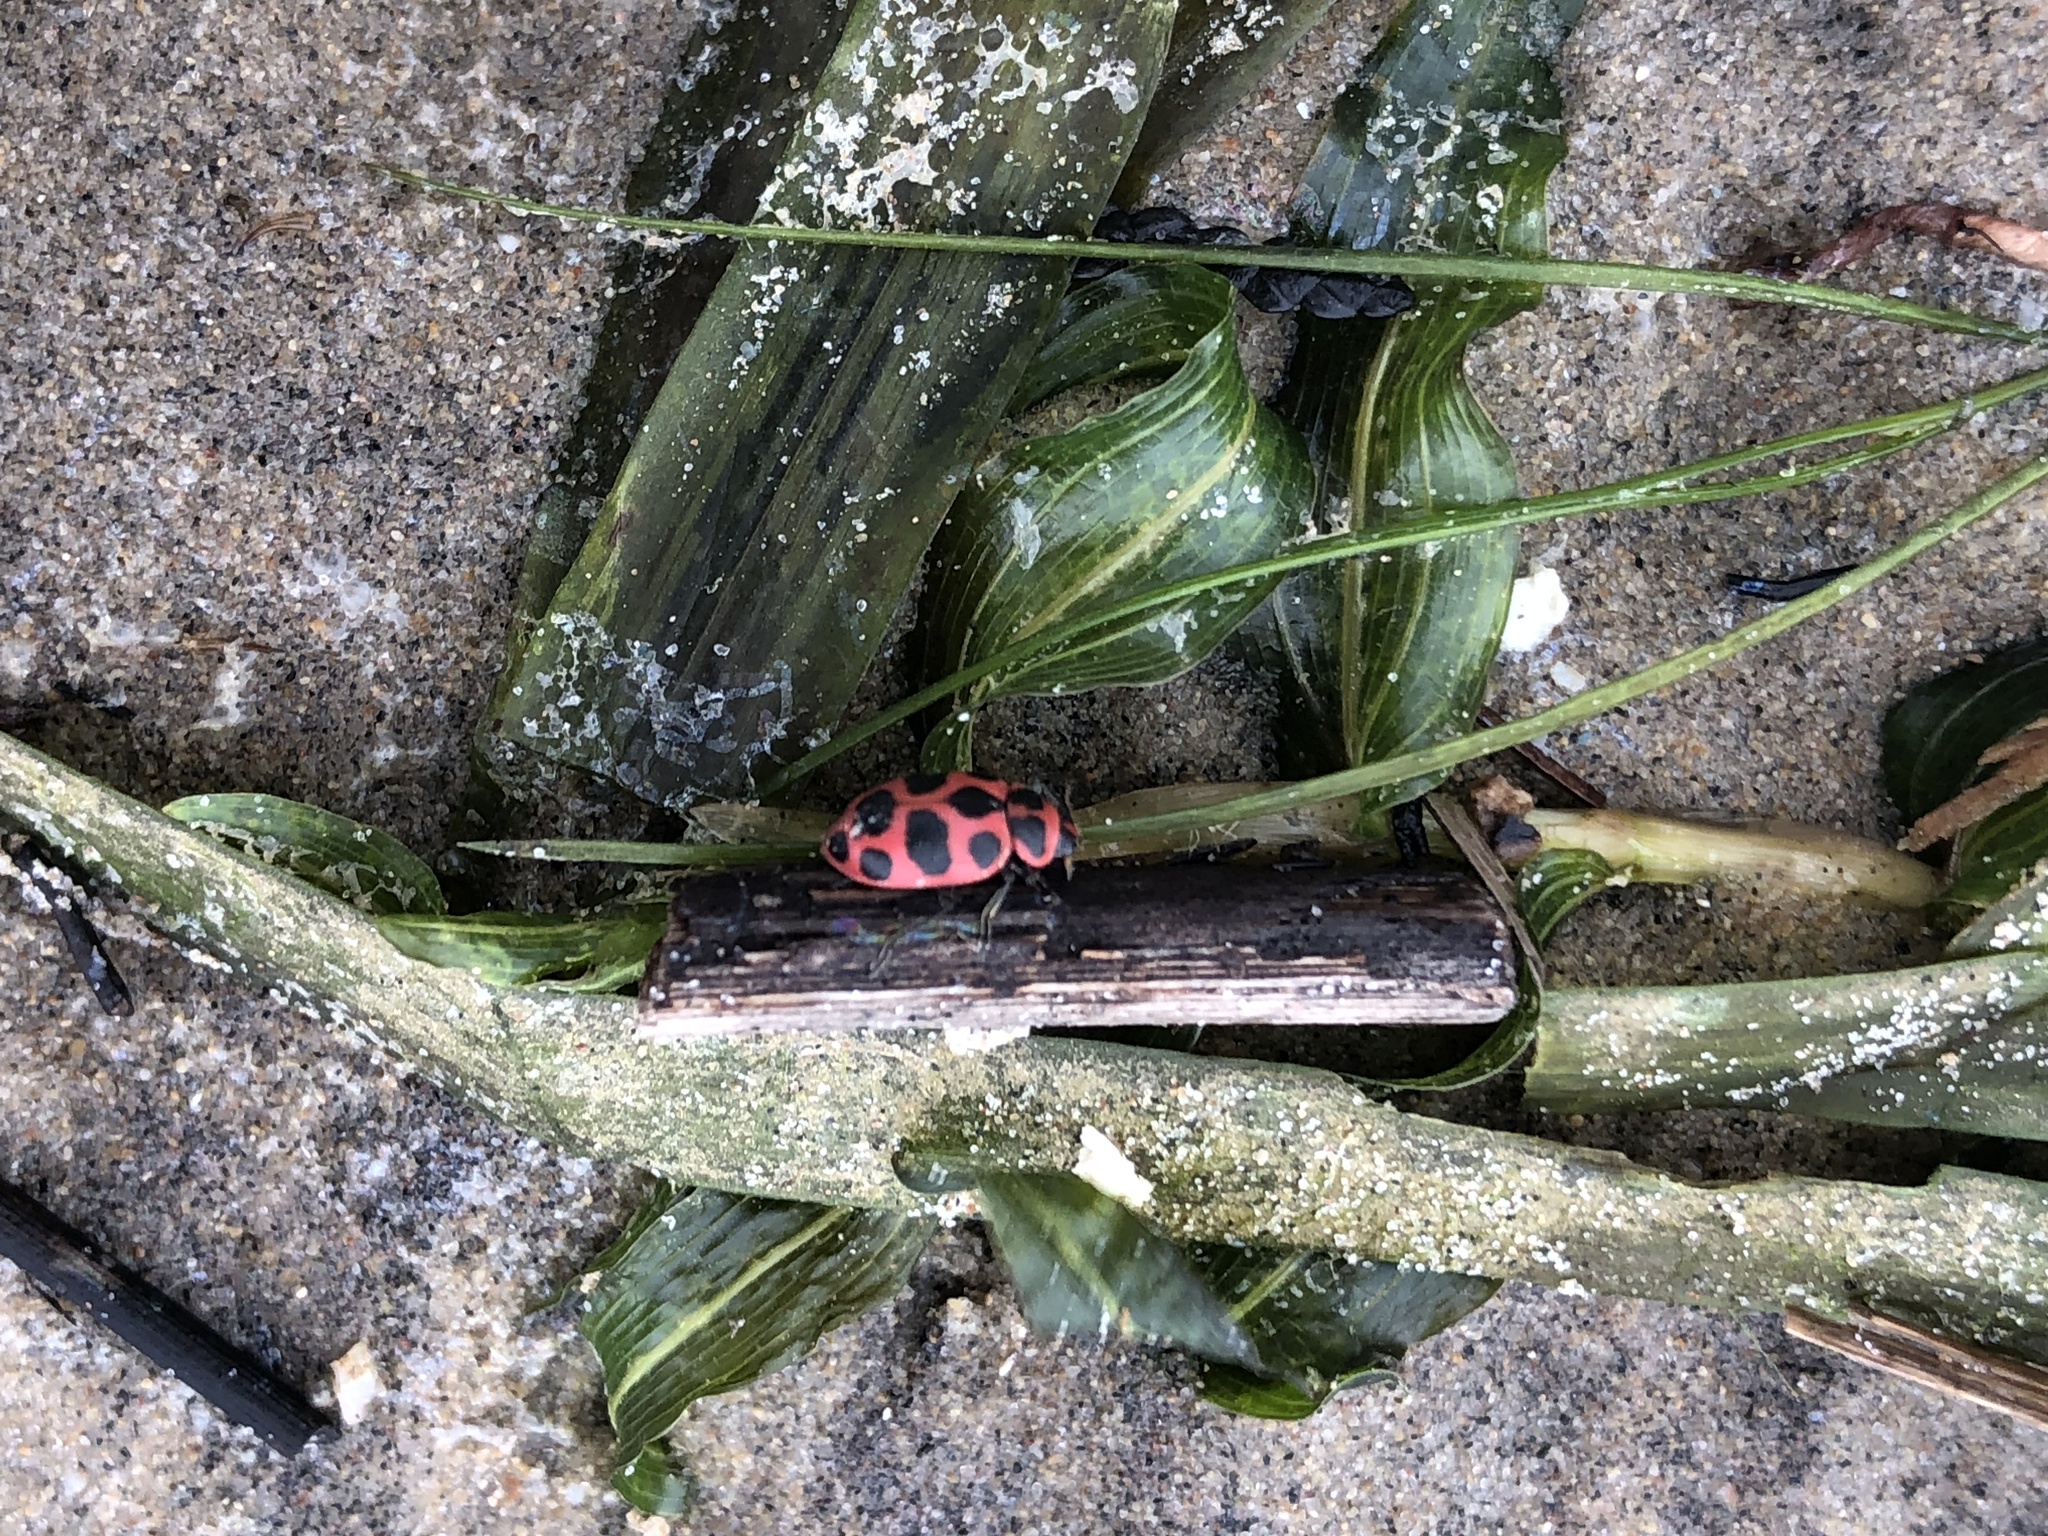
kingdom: Animalia
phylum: Arthropoda
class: Insecta
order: Coleoptera
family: Coccinellidae
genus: Coleomegilla
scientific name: Coleomegilla maculata
